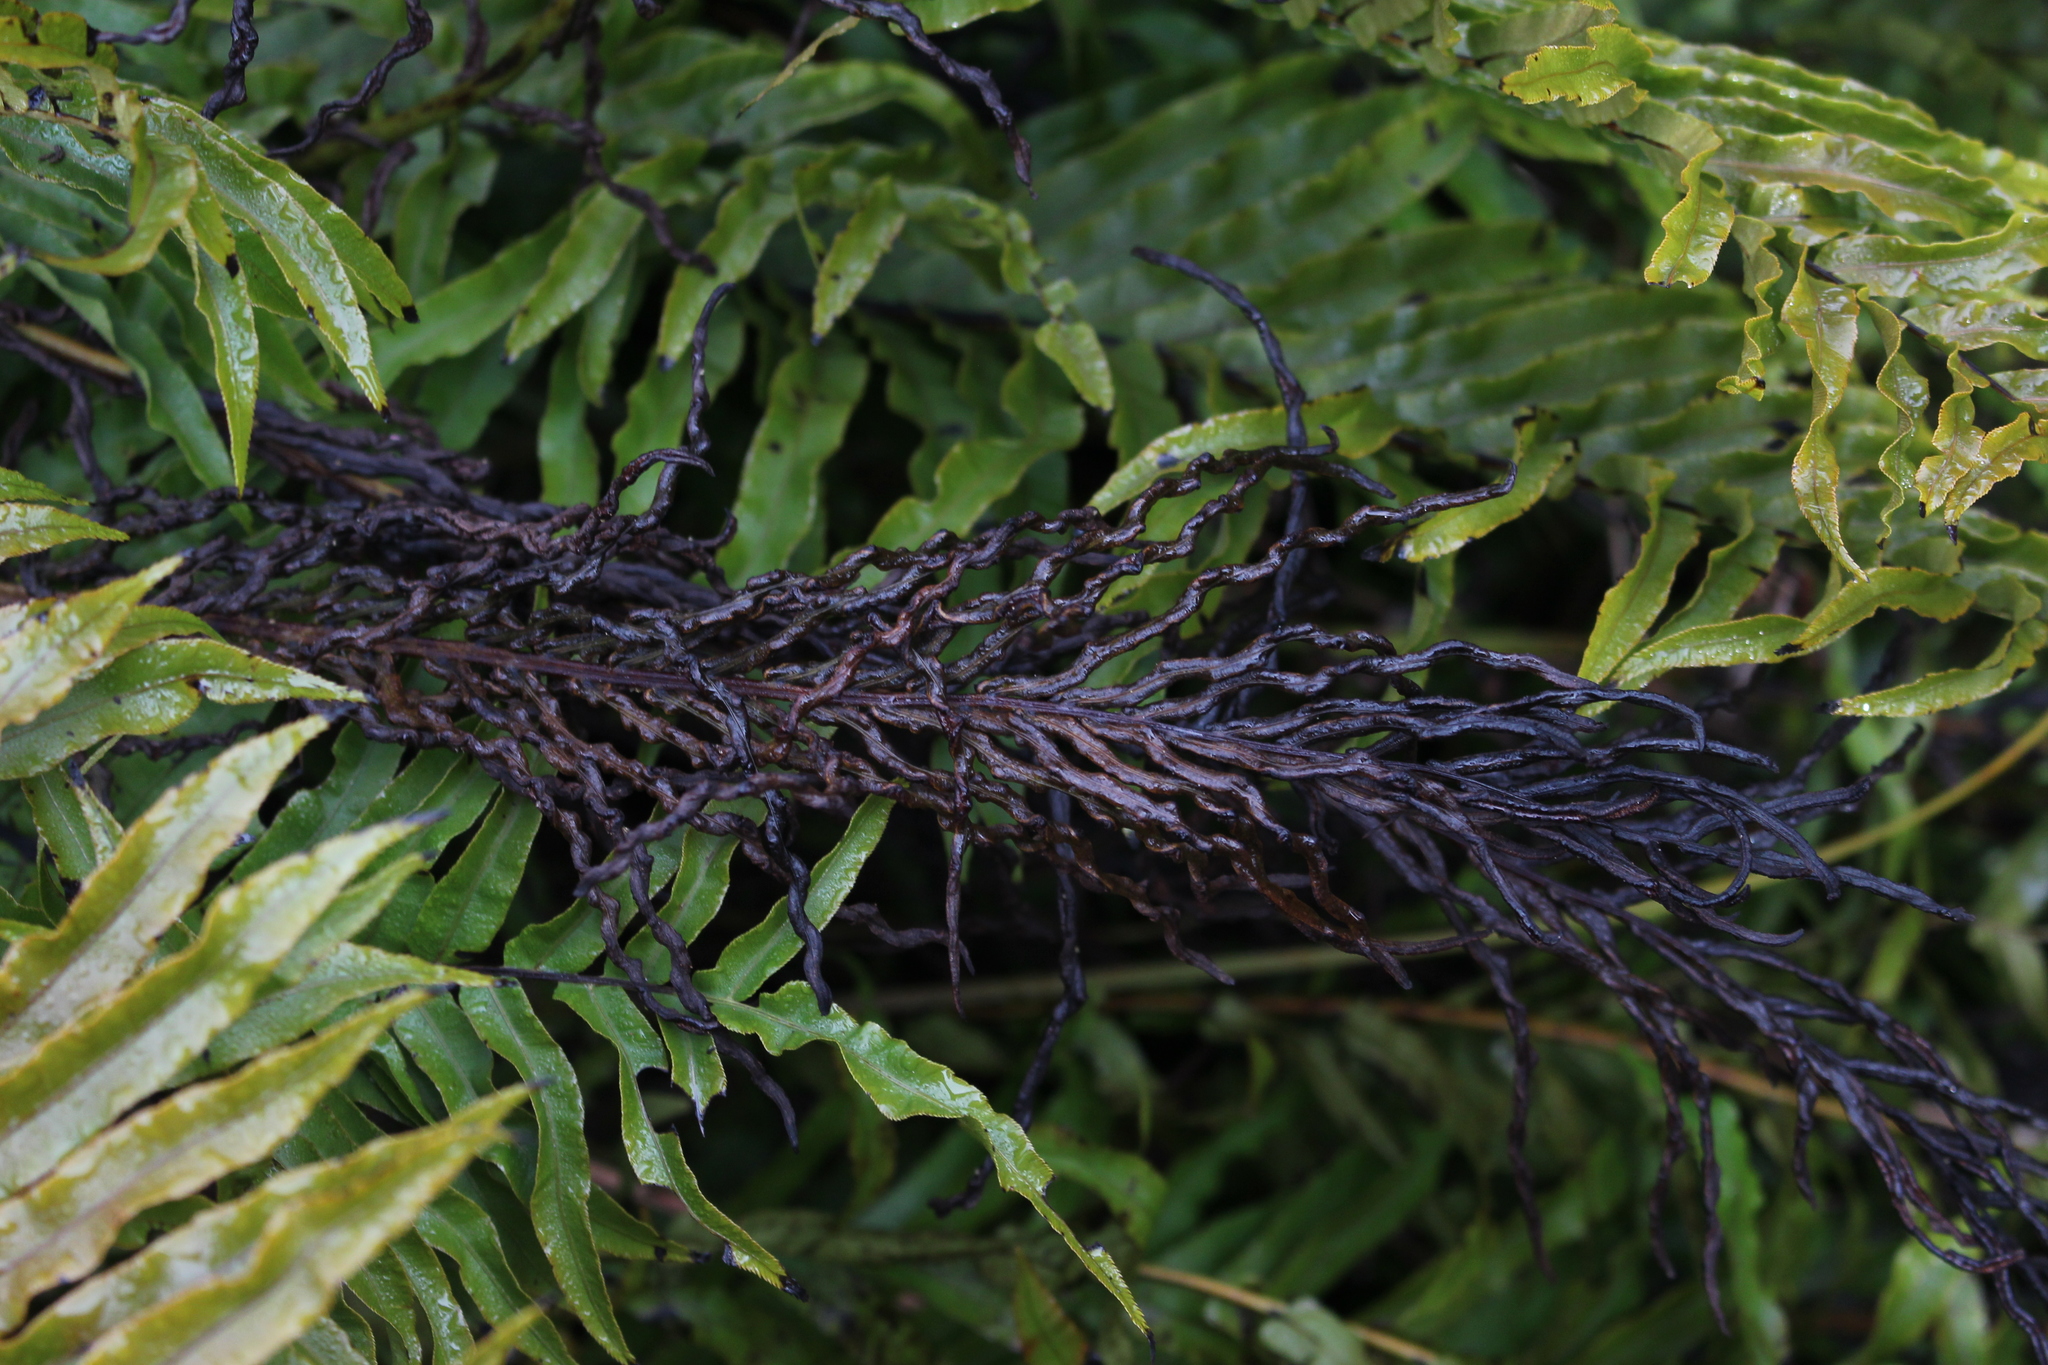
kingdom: Plantae
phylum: Tracheophyta
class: Polypodiopsida
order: Polypodiales
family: Blechnaceae
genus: Parablechnum
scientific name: Parablechnum minus
